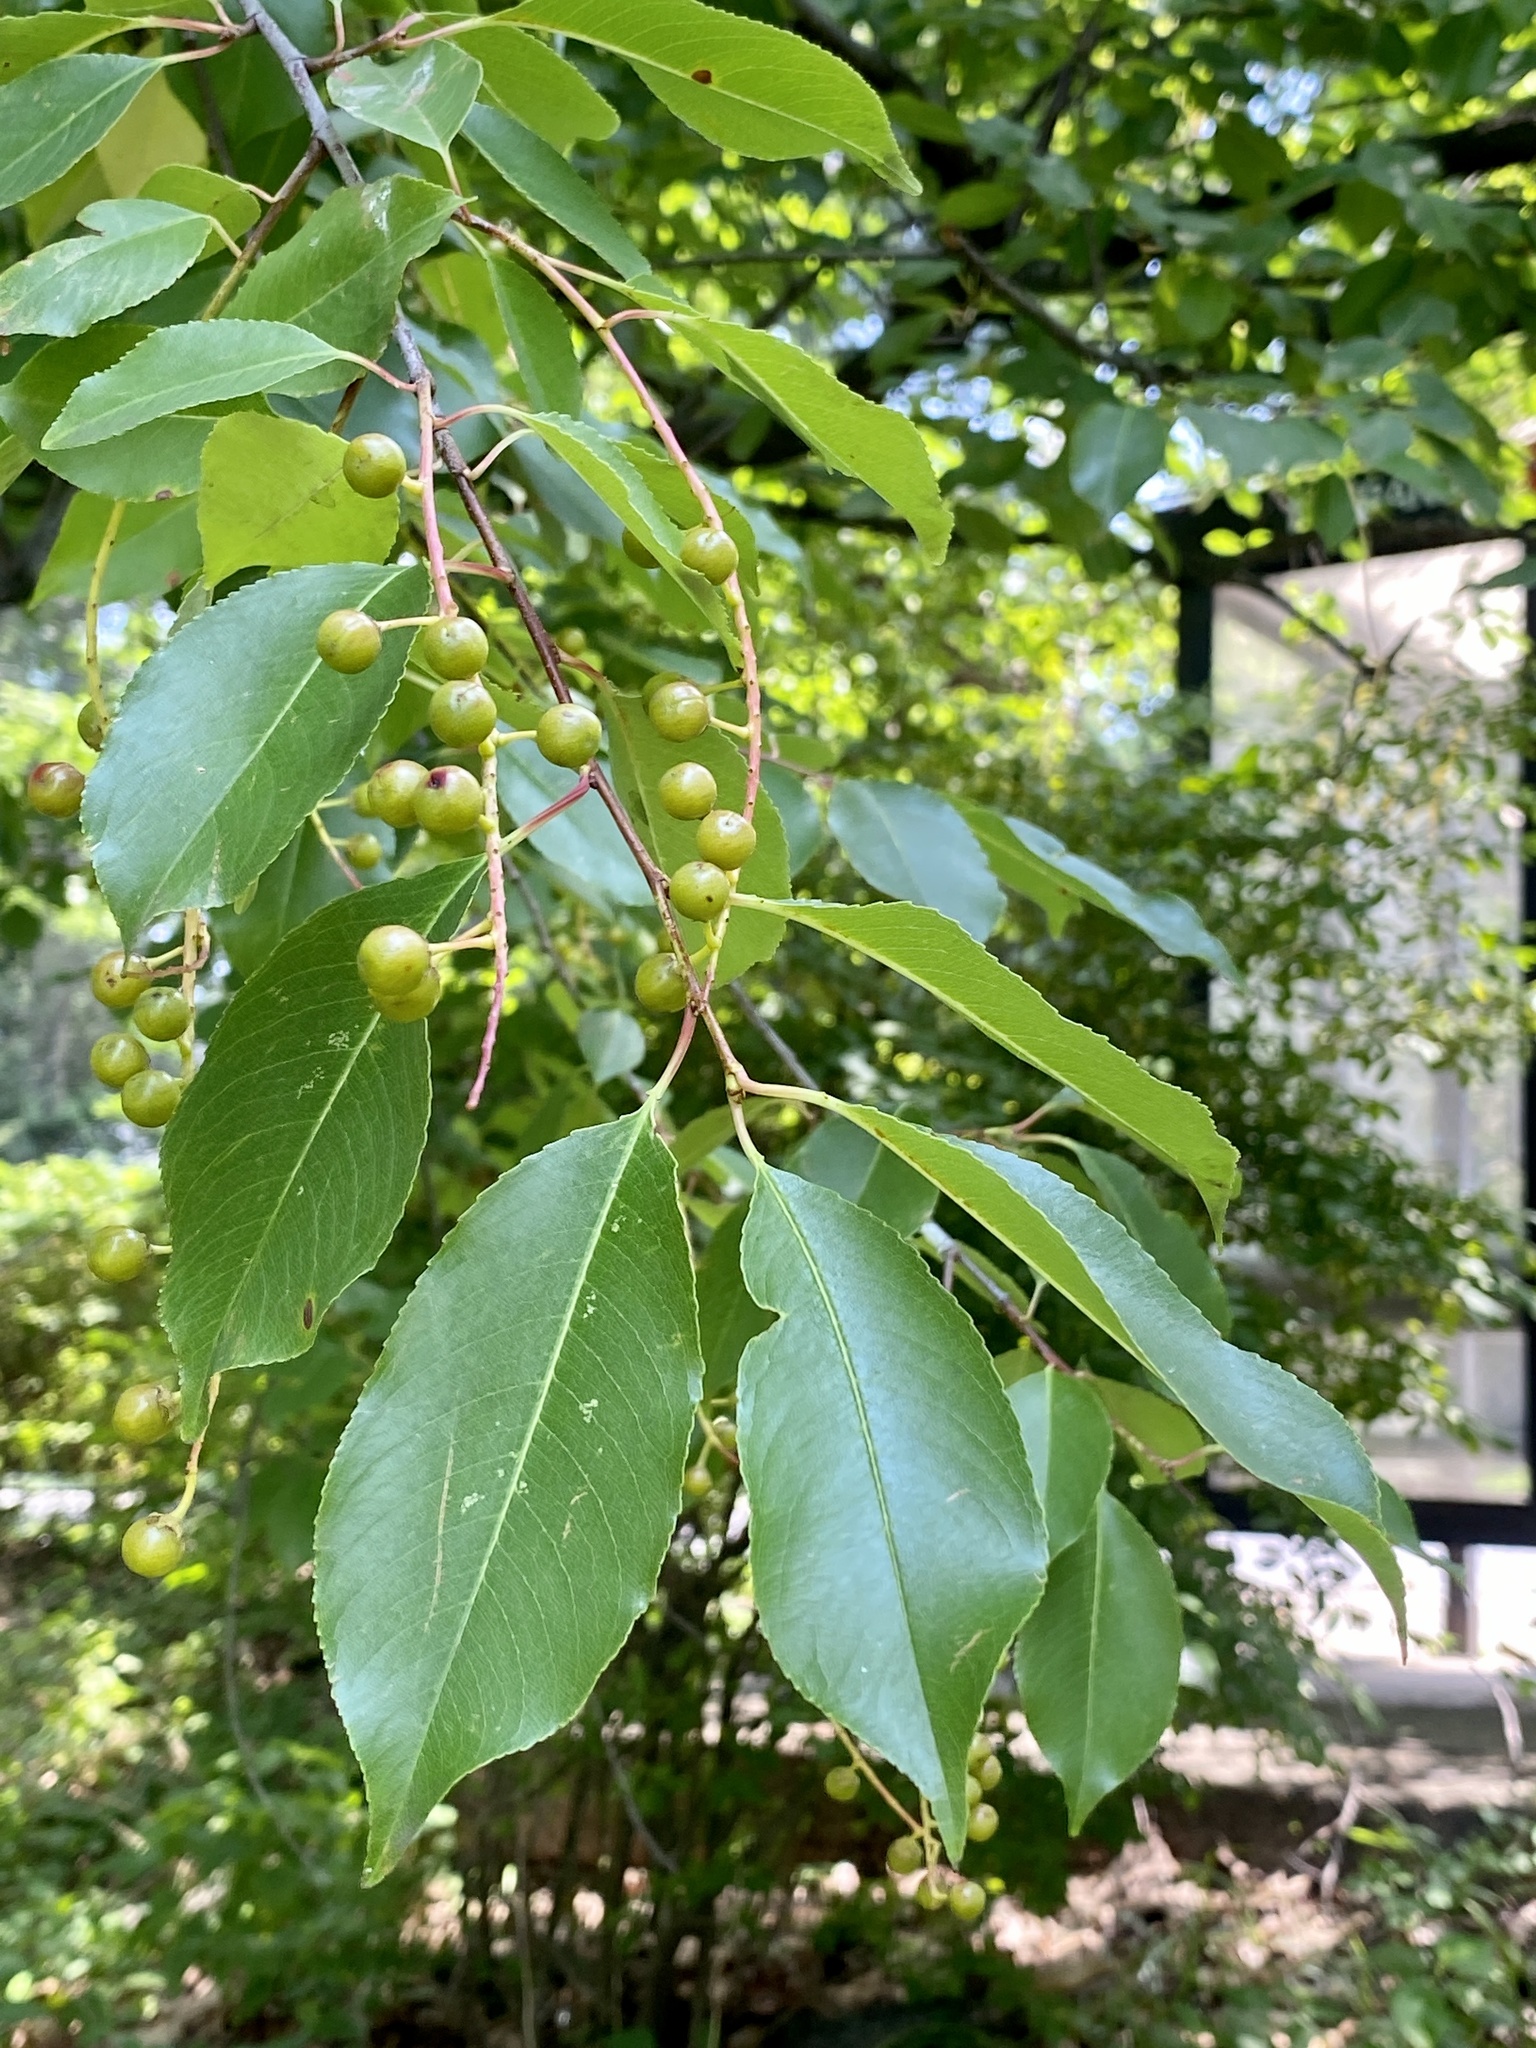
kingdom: Plantae
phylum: Tracheophyta
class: Magnoliopsida
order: Rosales
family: Rosaceae
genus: Prunus
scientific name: Prunus serotina
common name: Black cherry
